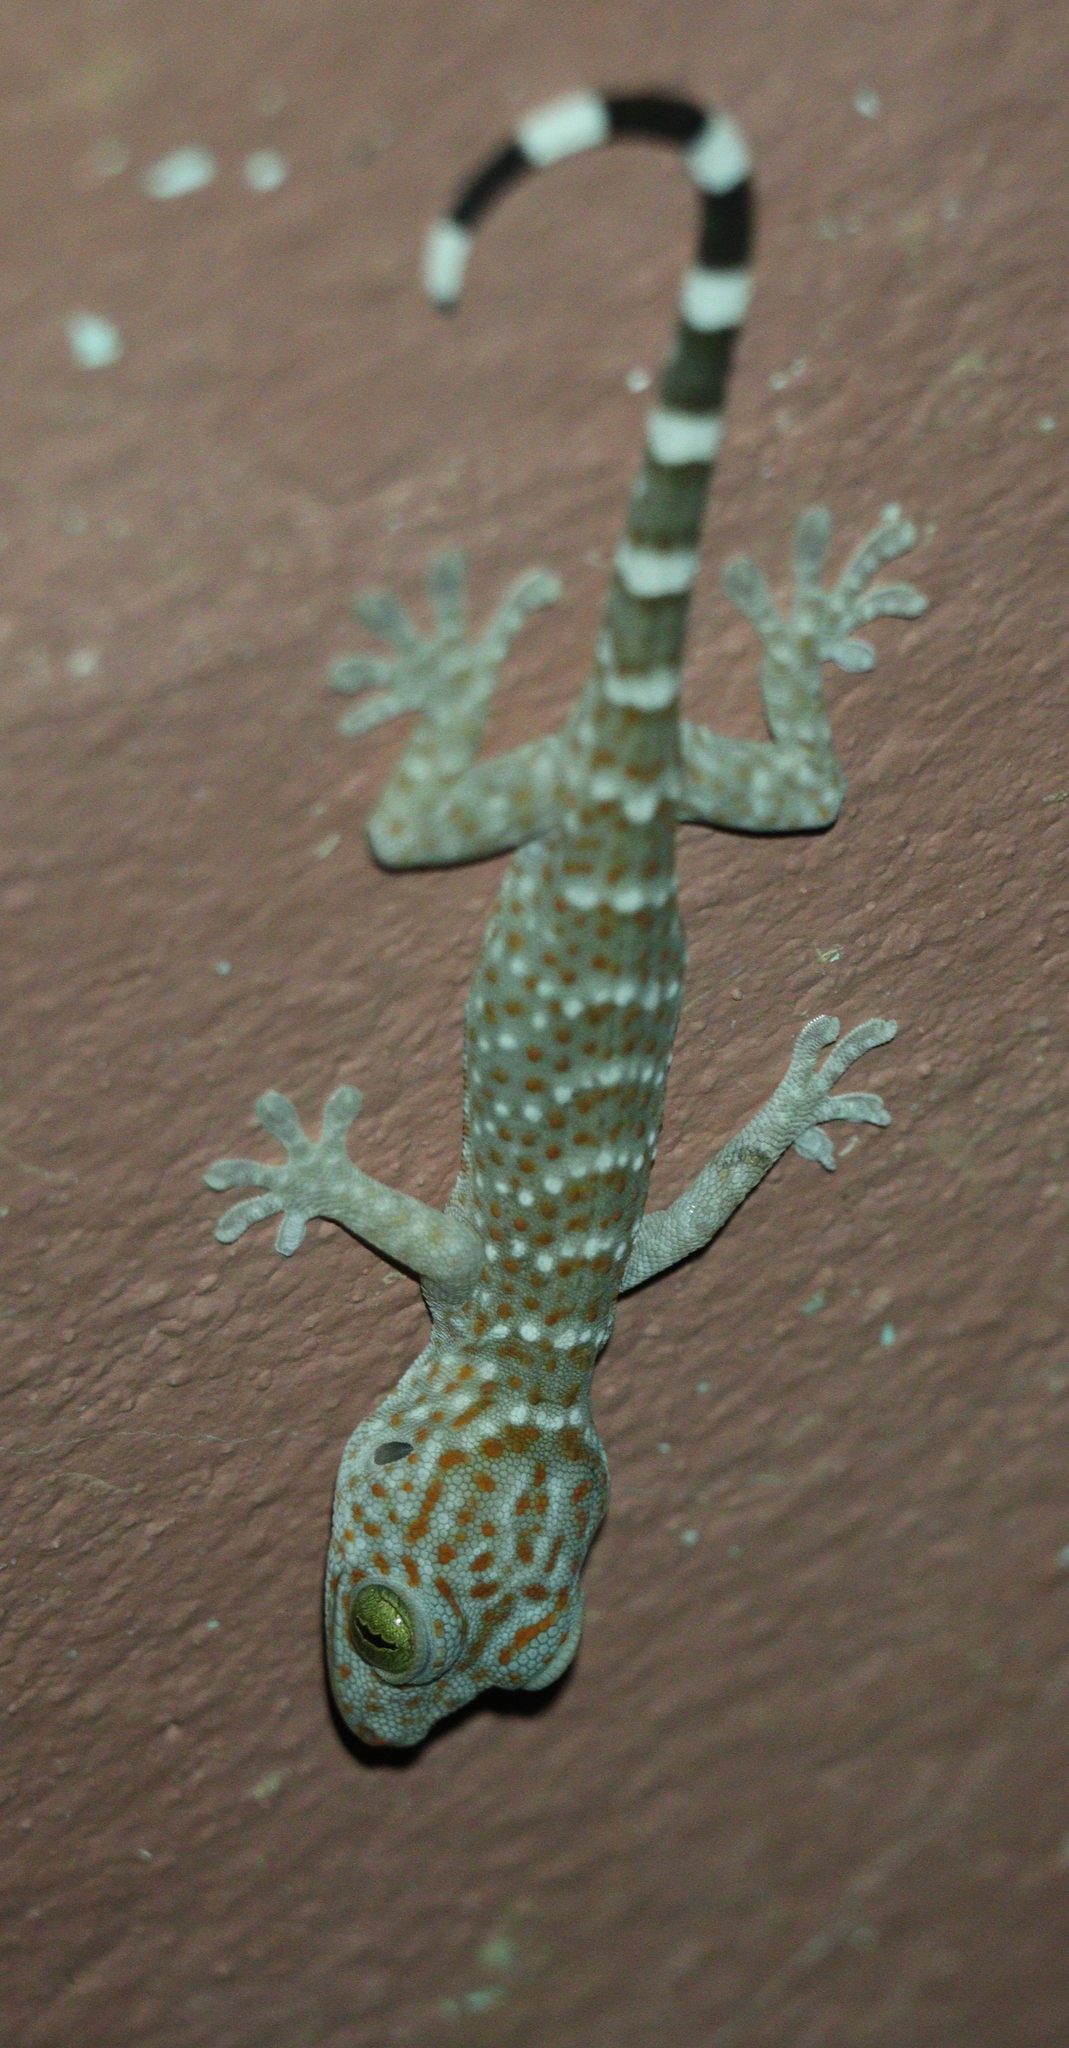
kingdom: Animalia
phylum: Chordata
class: Squamata
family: Gekkonidae
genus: Gekko
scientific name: Gekko gecko
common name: Tokay gecko
